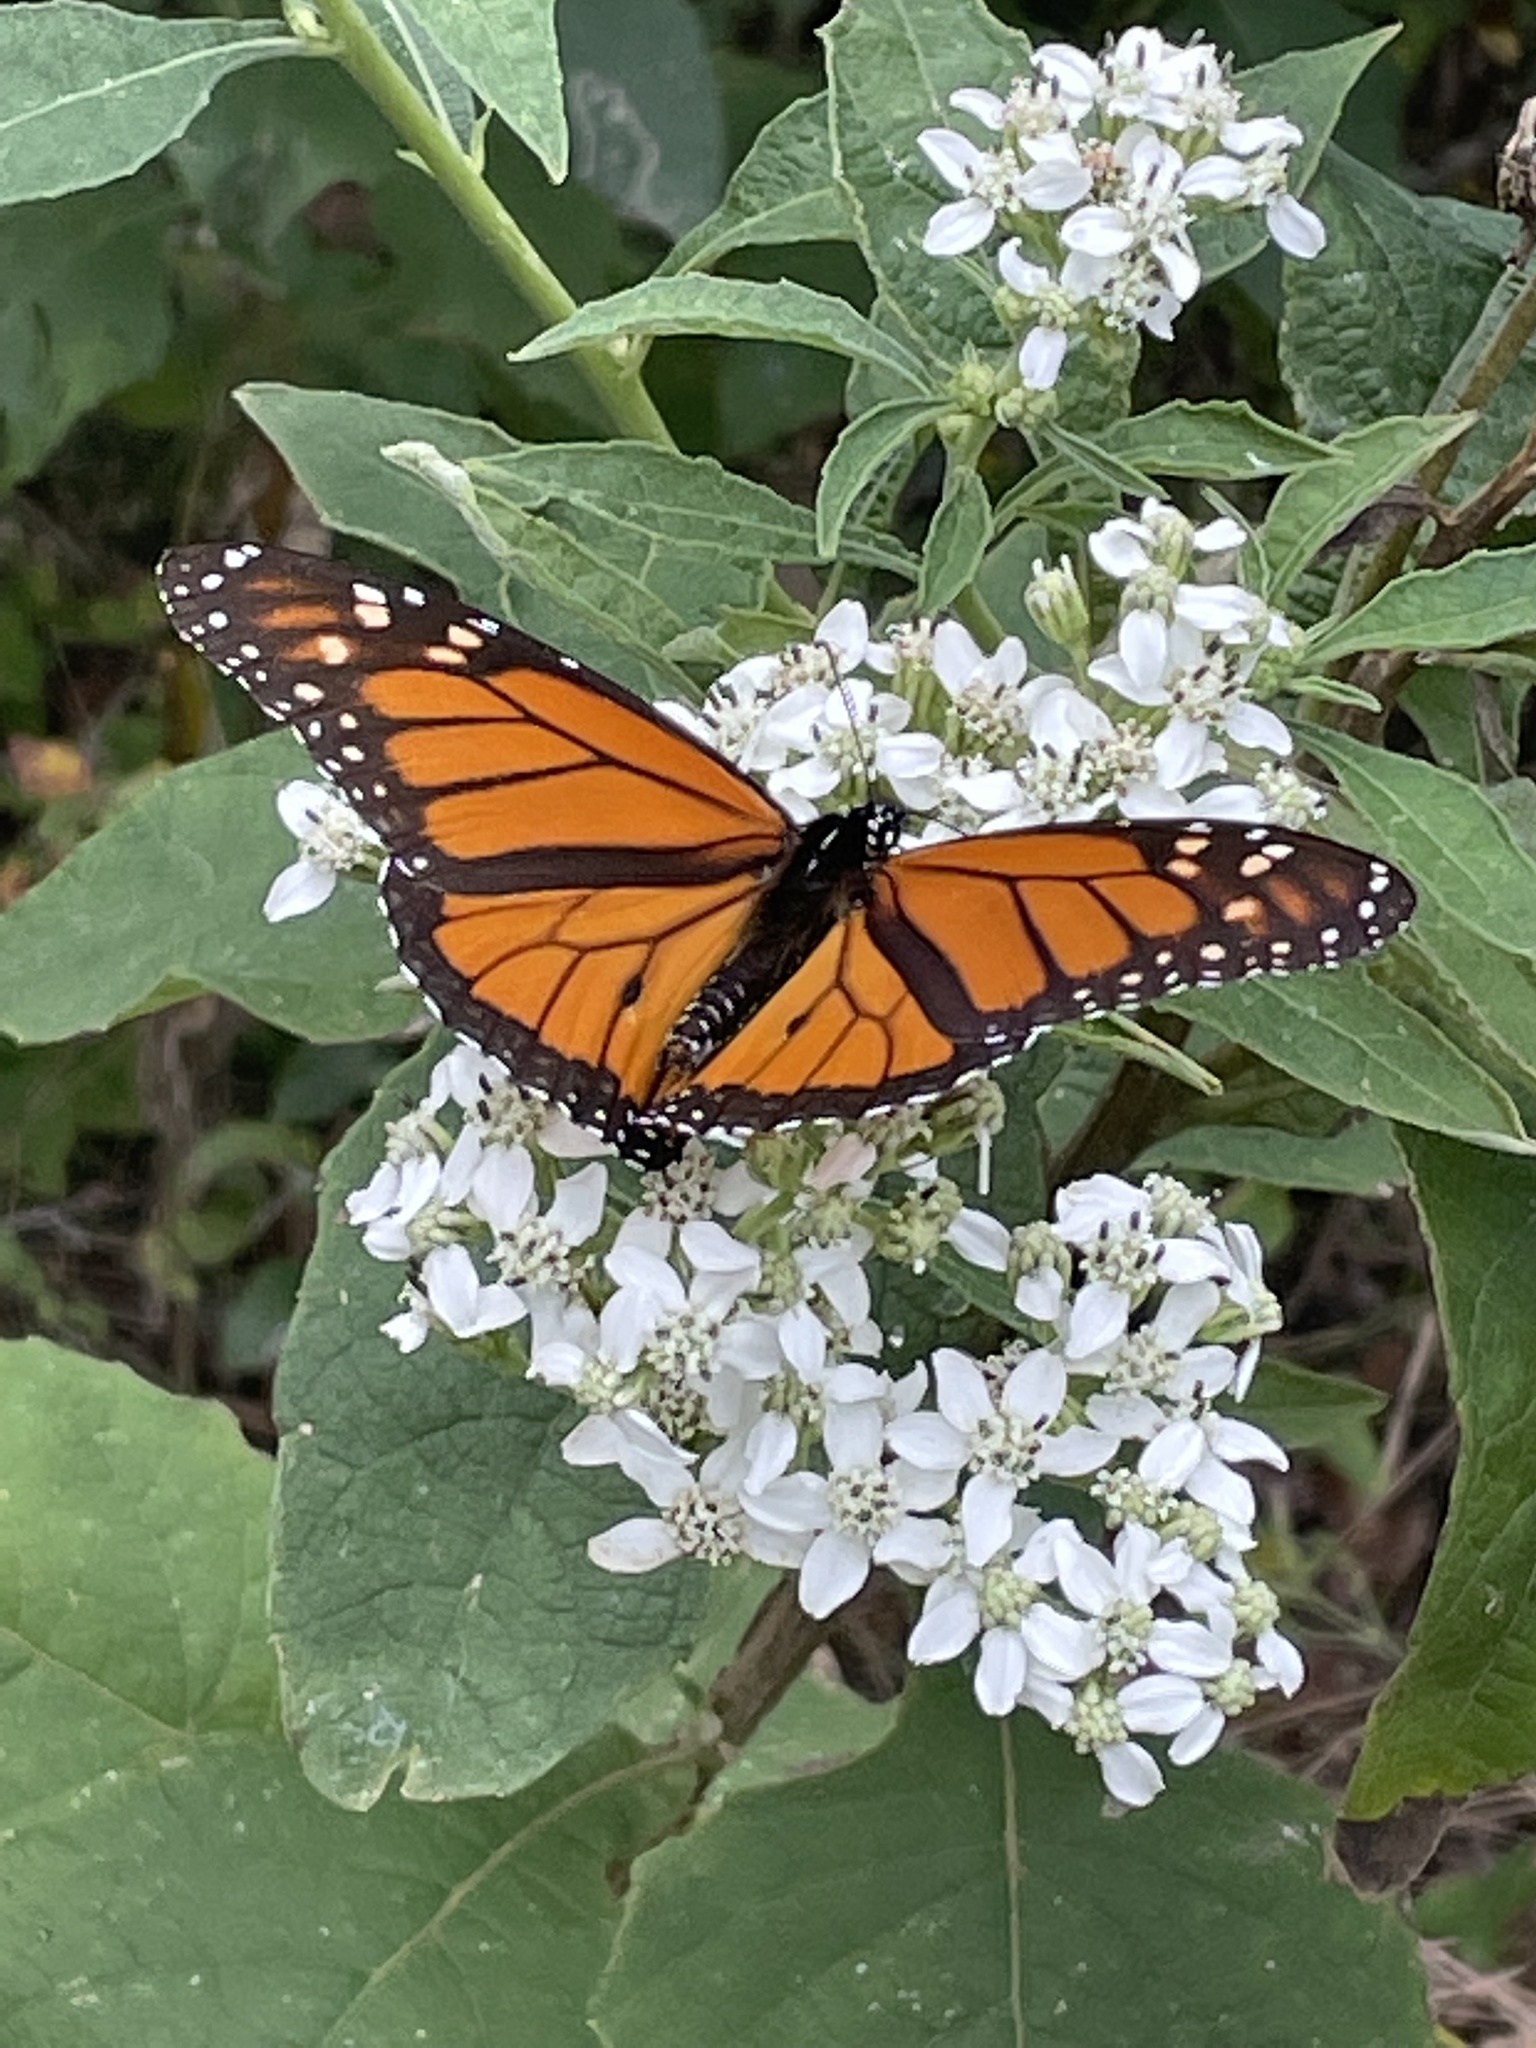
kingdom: Animalia
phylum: Arthropoda
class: Insecta
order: Lepidoptera
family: Nymphalidae
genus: Danaus
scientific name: Danaus plexippus
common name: Monarch
